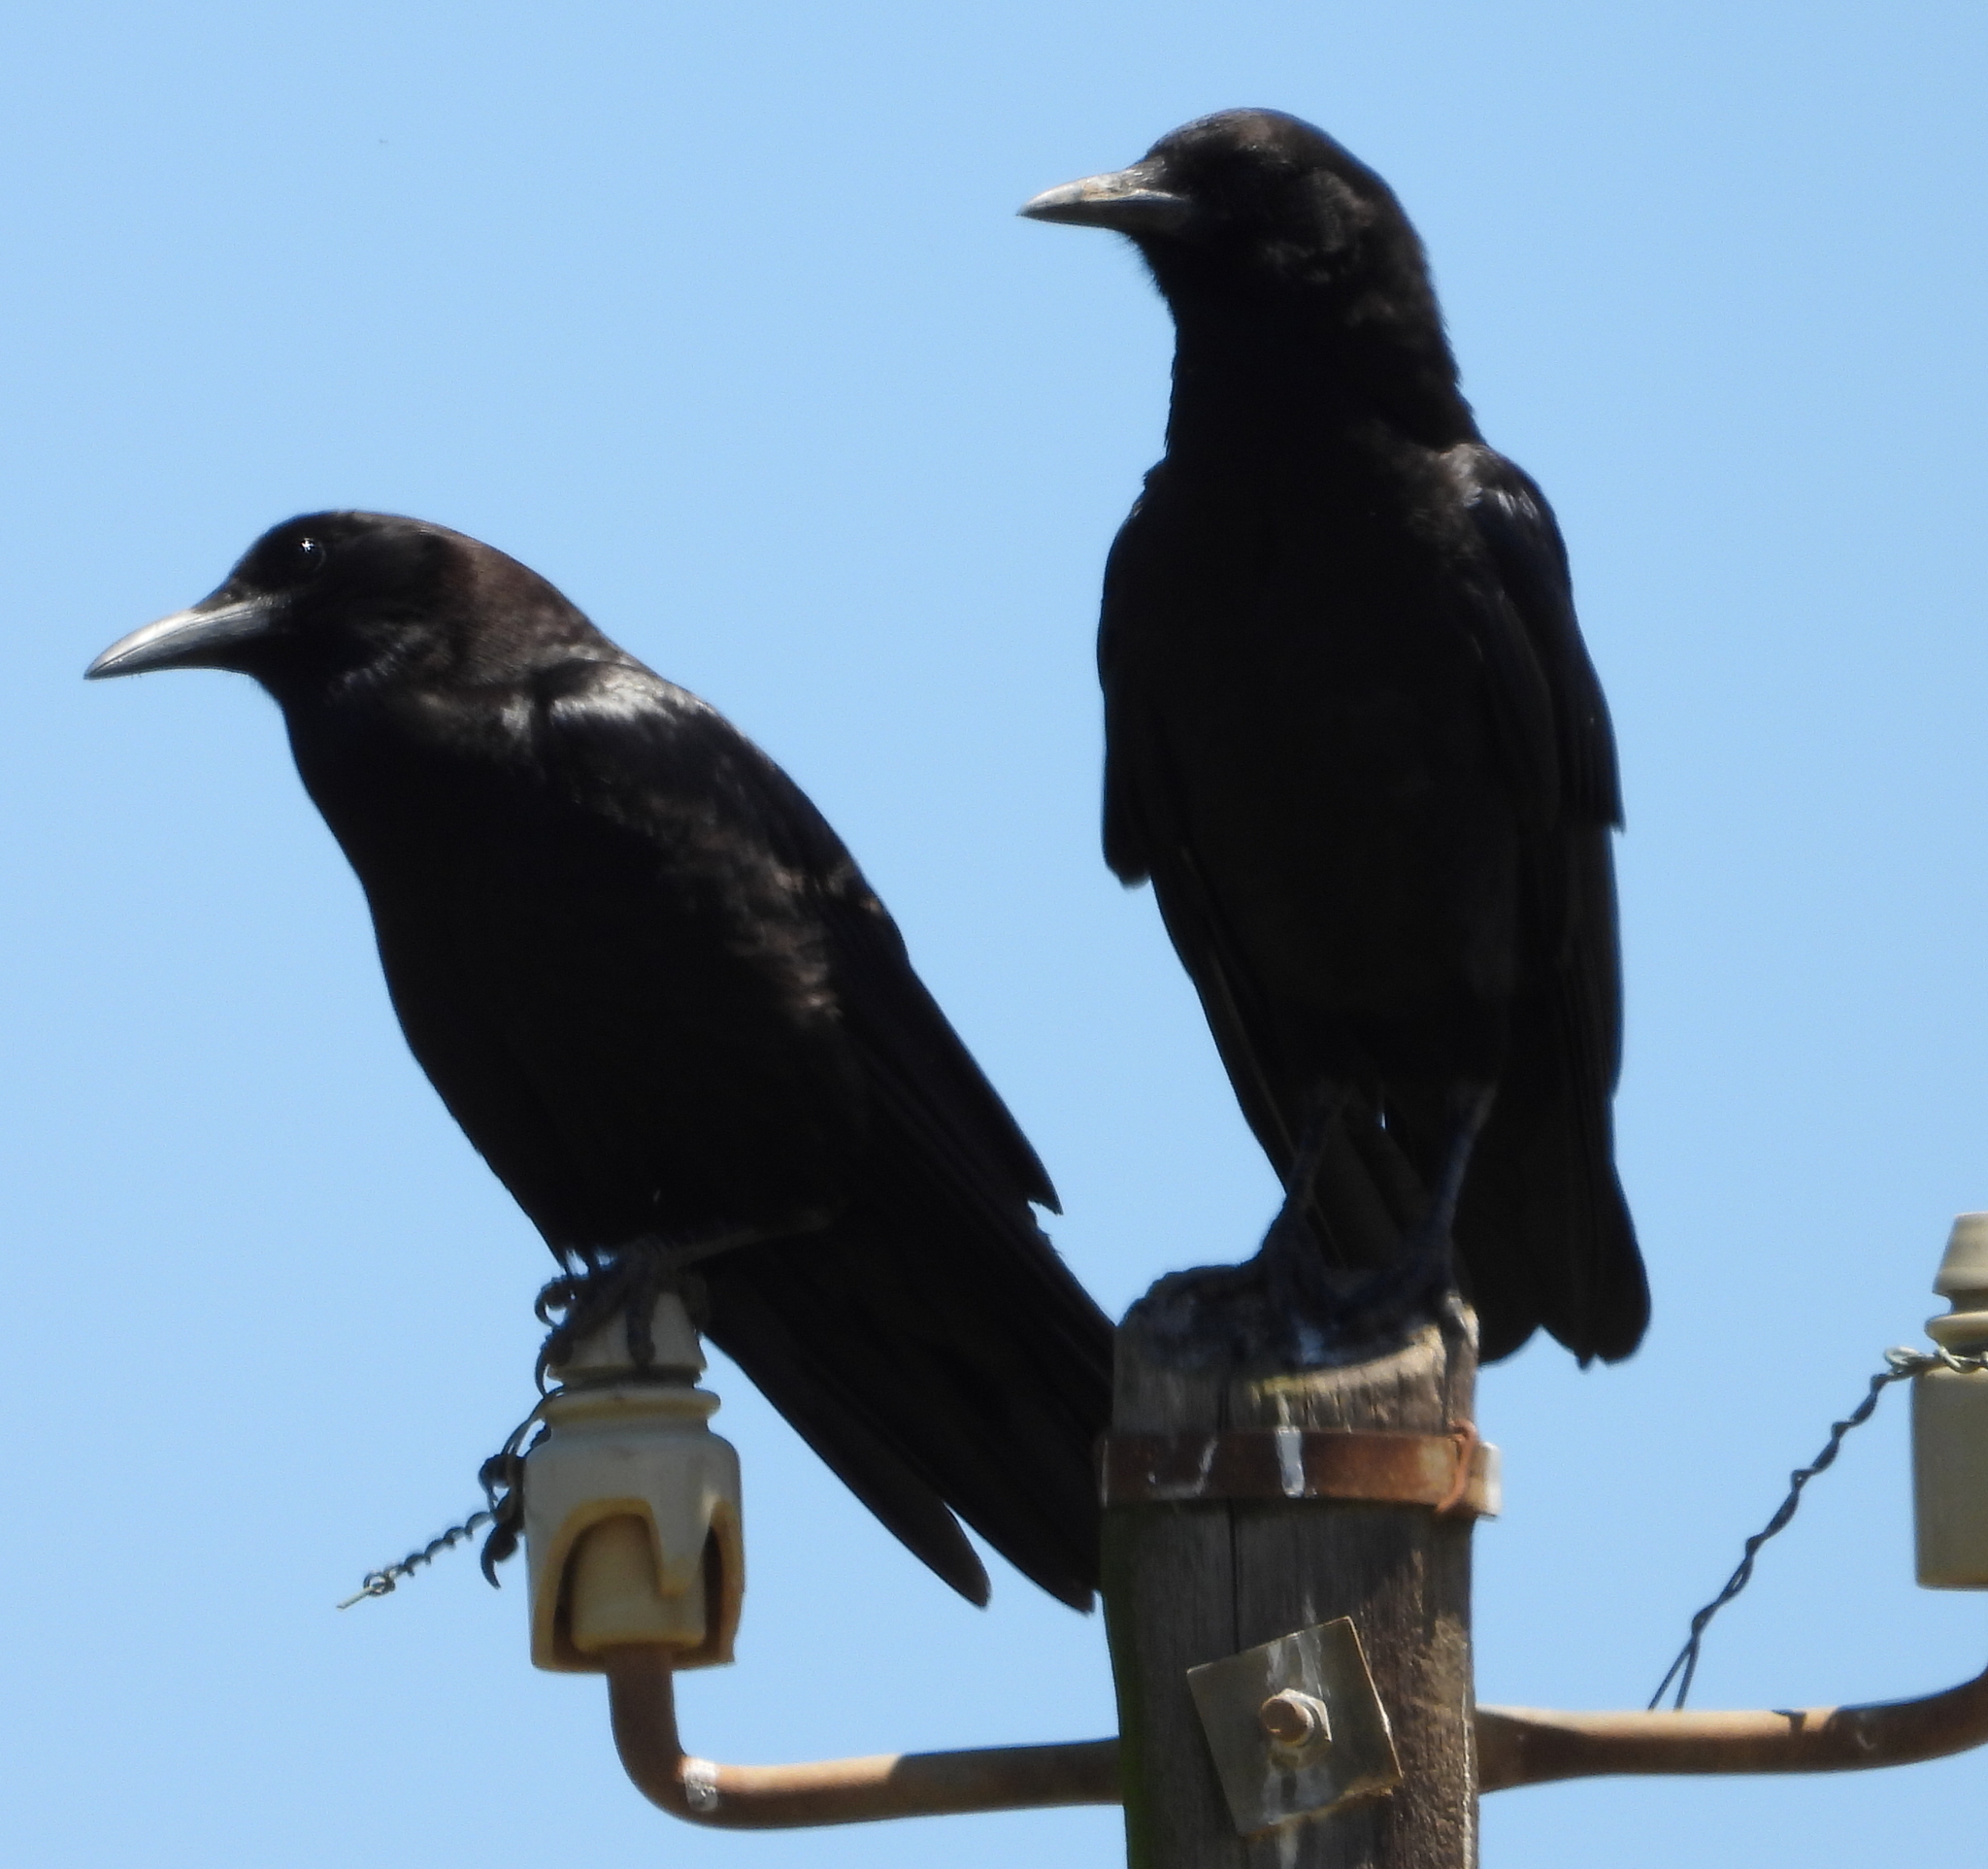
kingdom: Animalia
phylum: Chordata
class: Aves
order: Passeriformes
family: Corvidae
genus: Corvus
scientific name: Corvus capensis
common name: Cape crow
